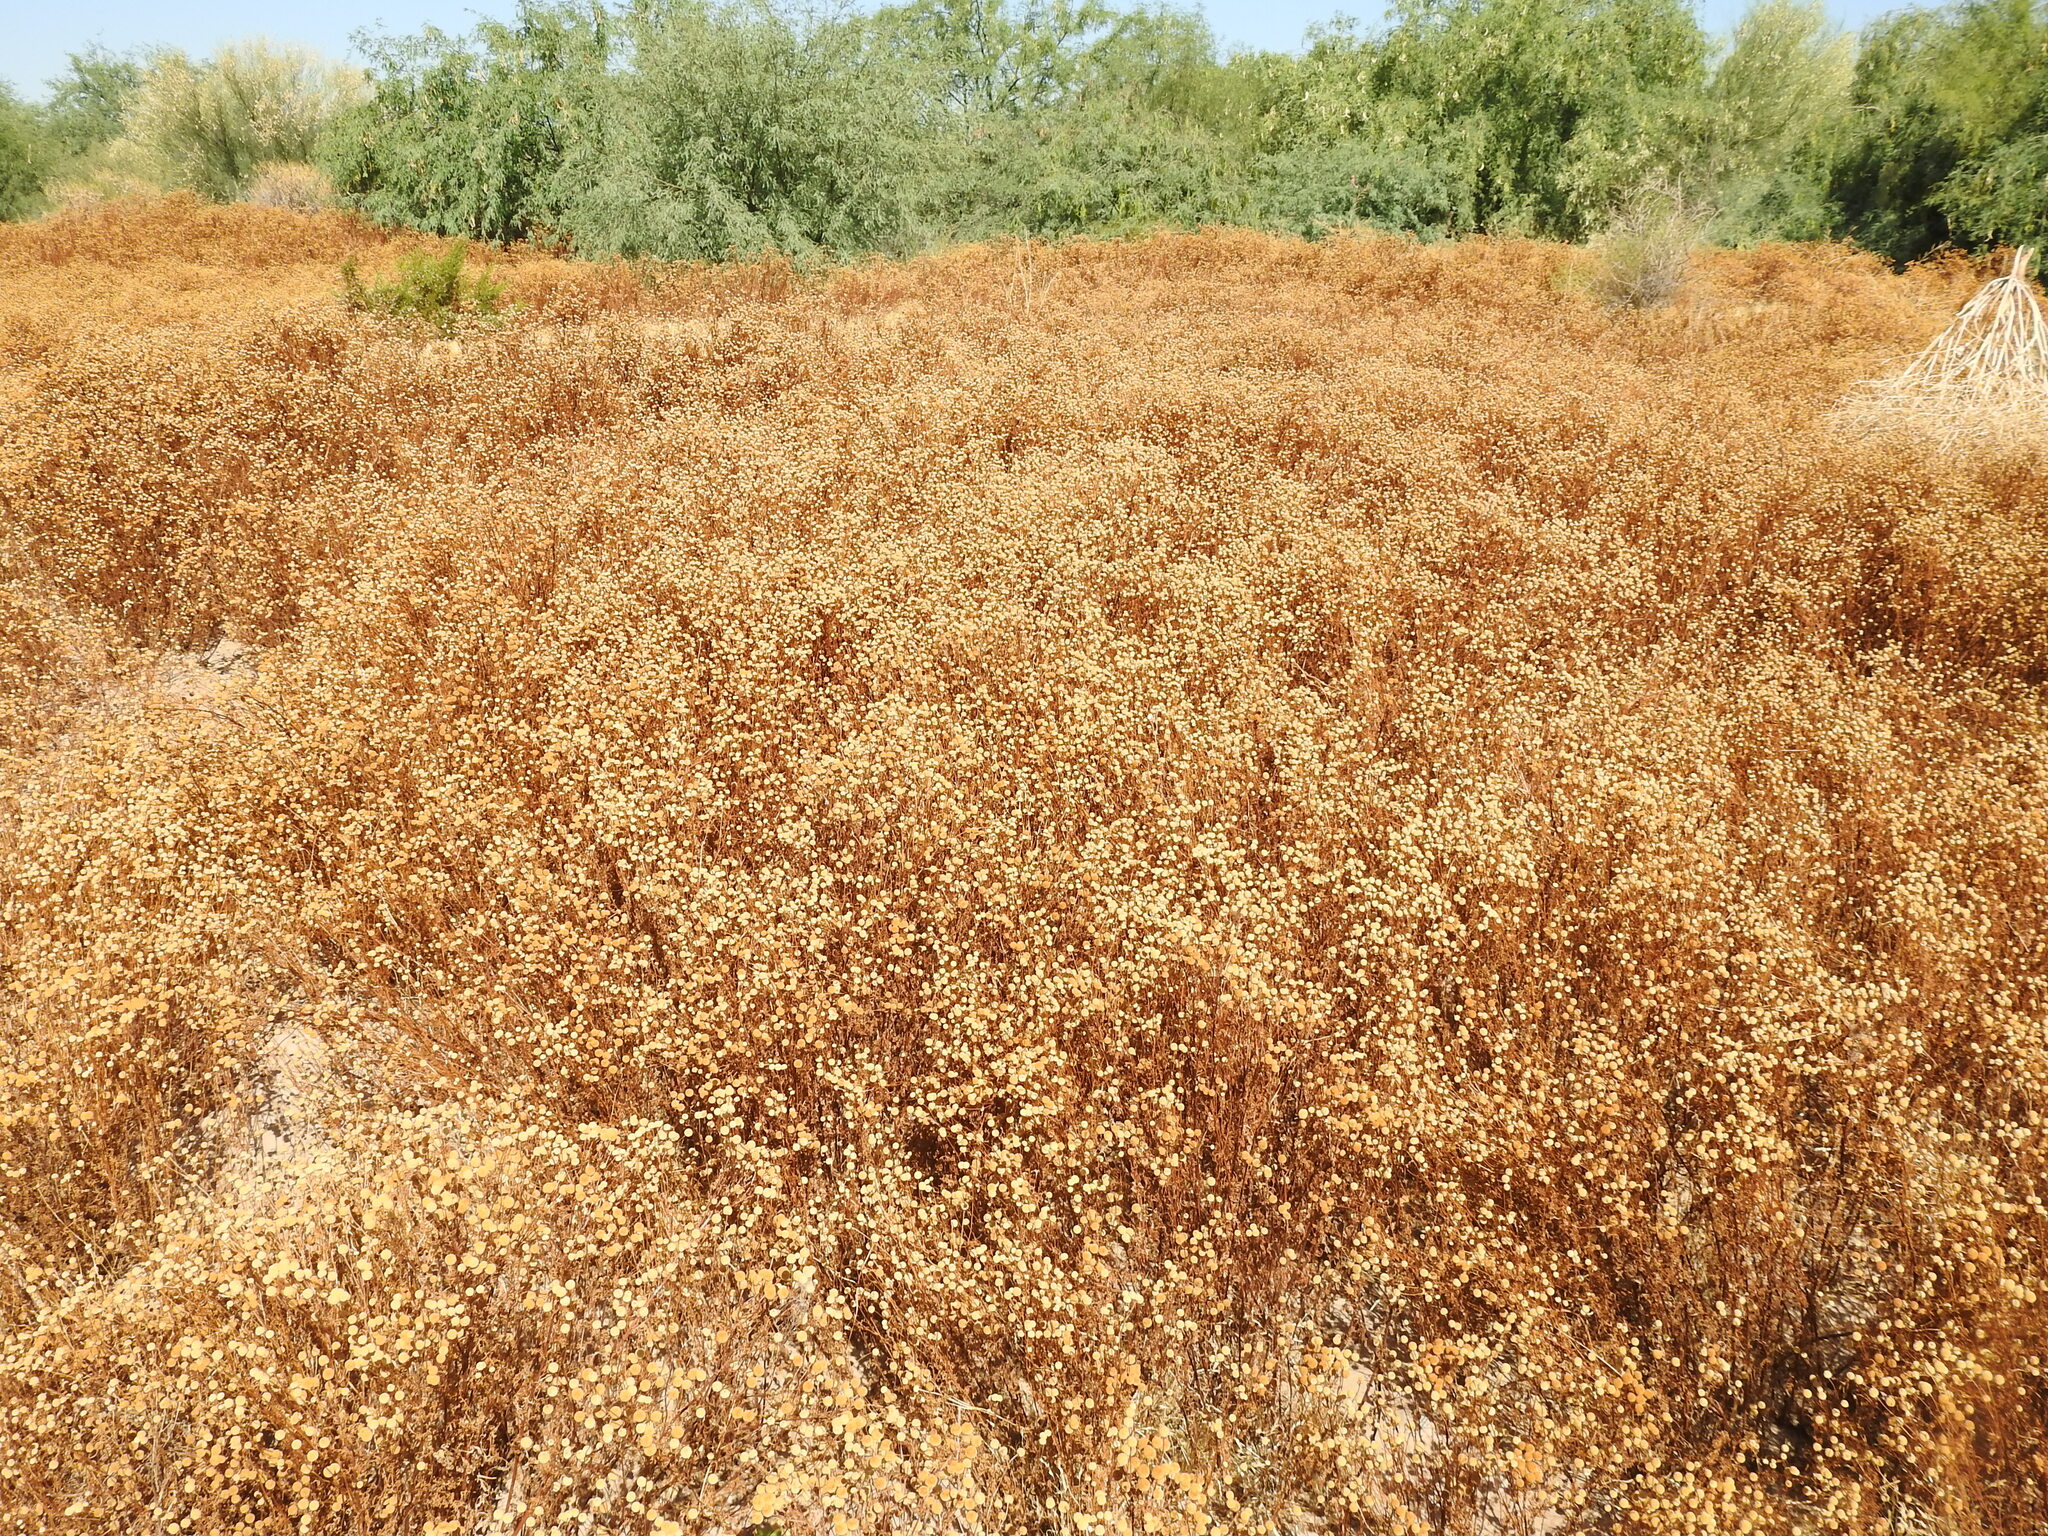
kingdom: Plantae
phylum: Tracheophyta
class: Magnoliopsida
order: Asterales
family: Asteraceae
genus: Oncosiphon
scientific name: Oncosiphon pilulifer
